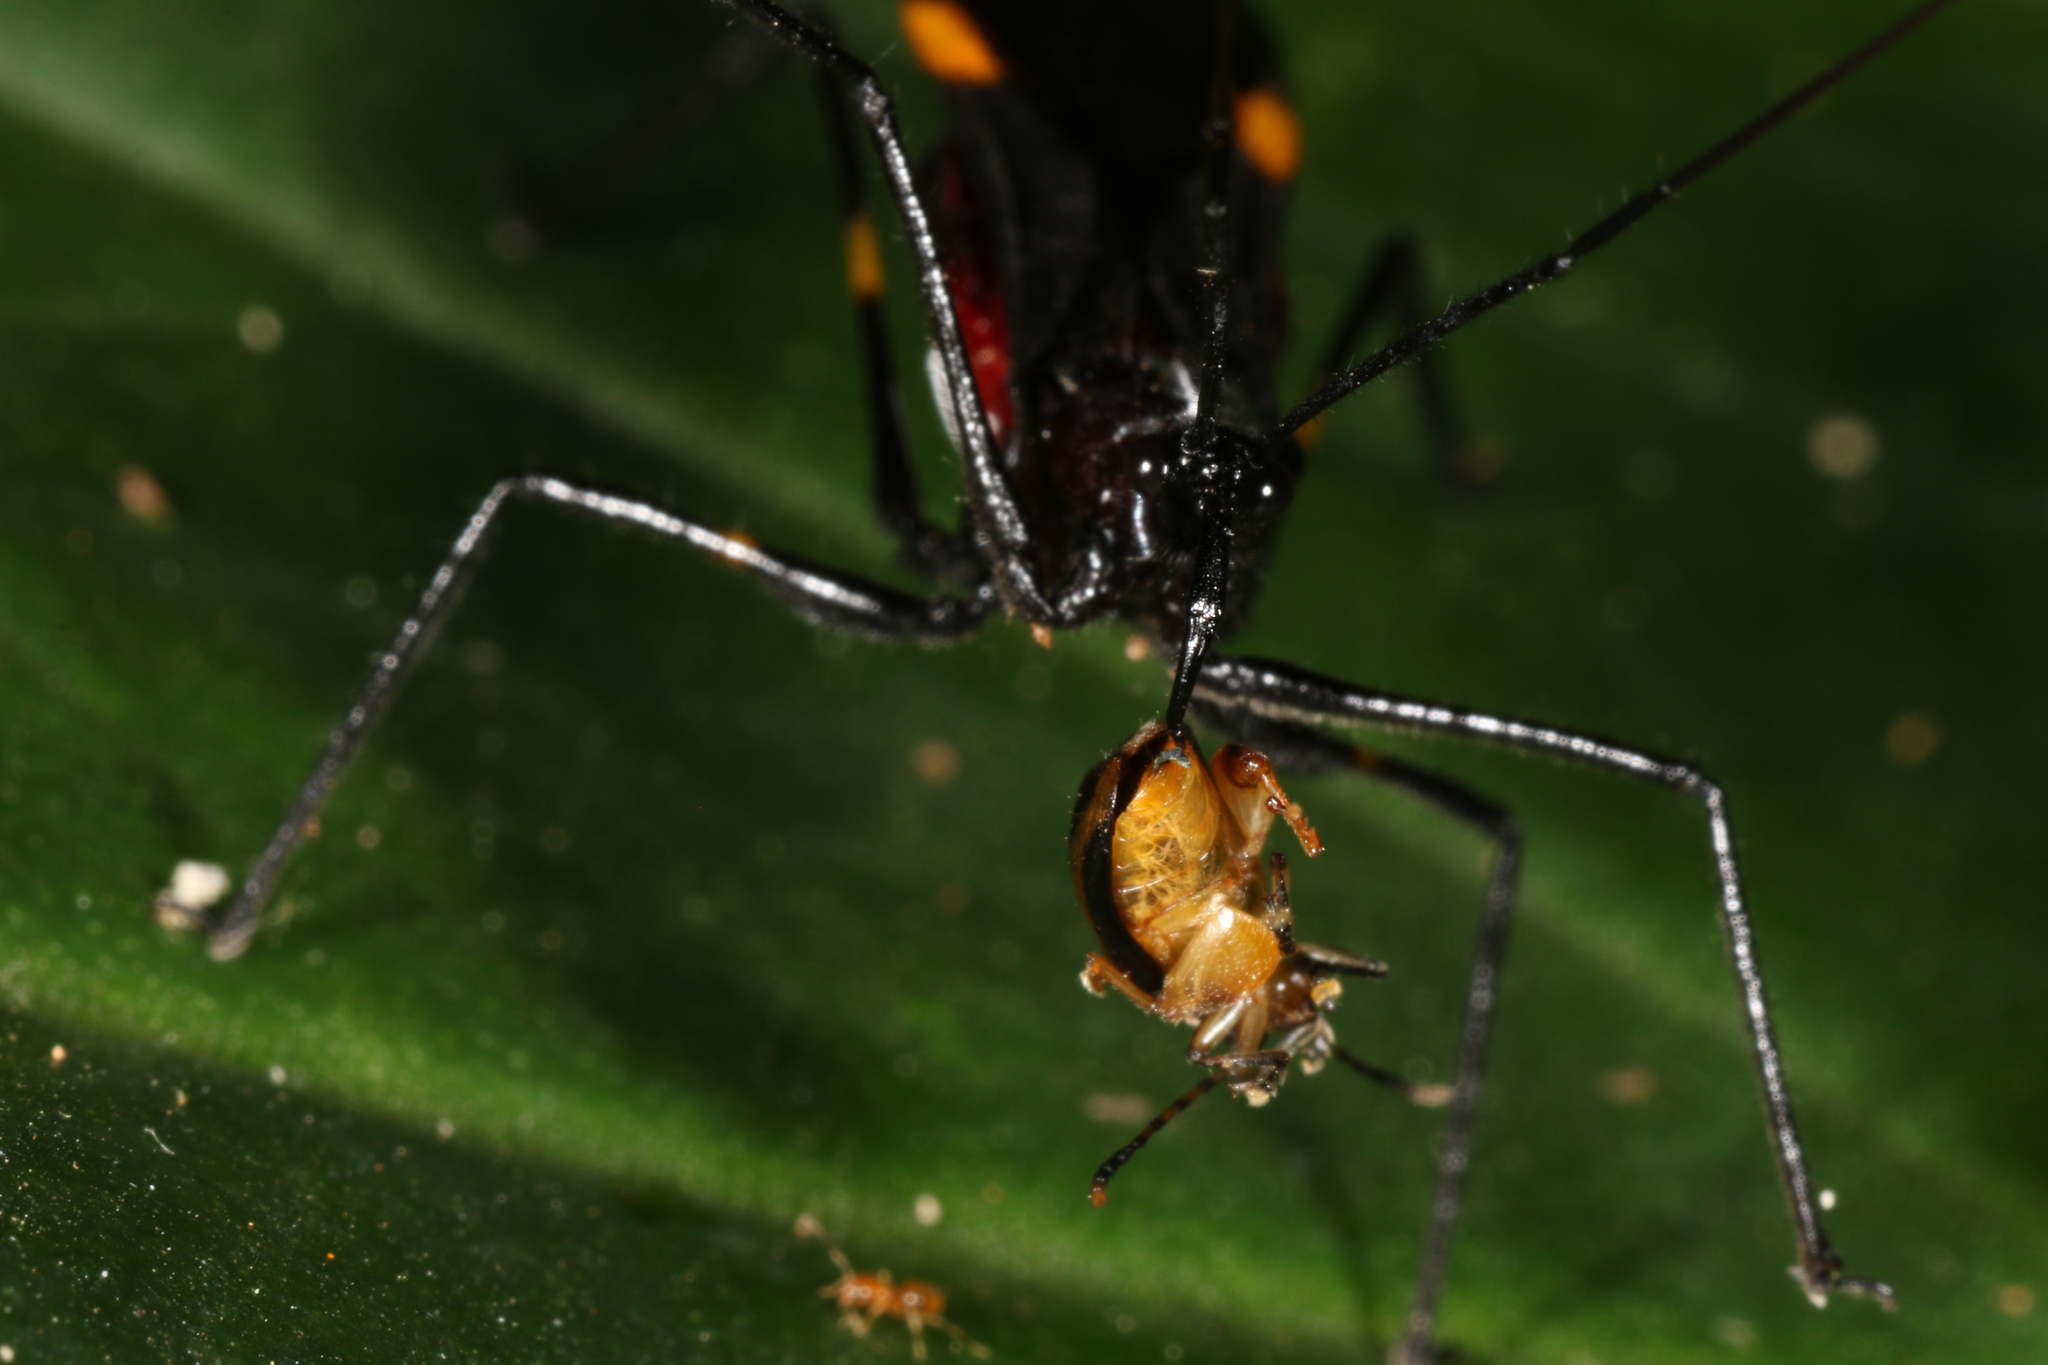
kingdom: Animalia
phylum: Arthropoda
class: Insecta
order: Hemiptera
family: Reduviidae
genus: Parahiranetis
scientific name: Parahiranetis salgadoi
